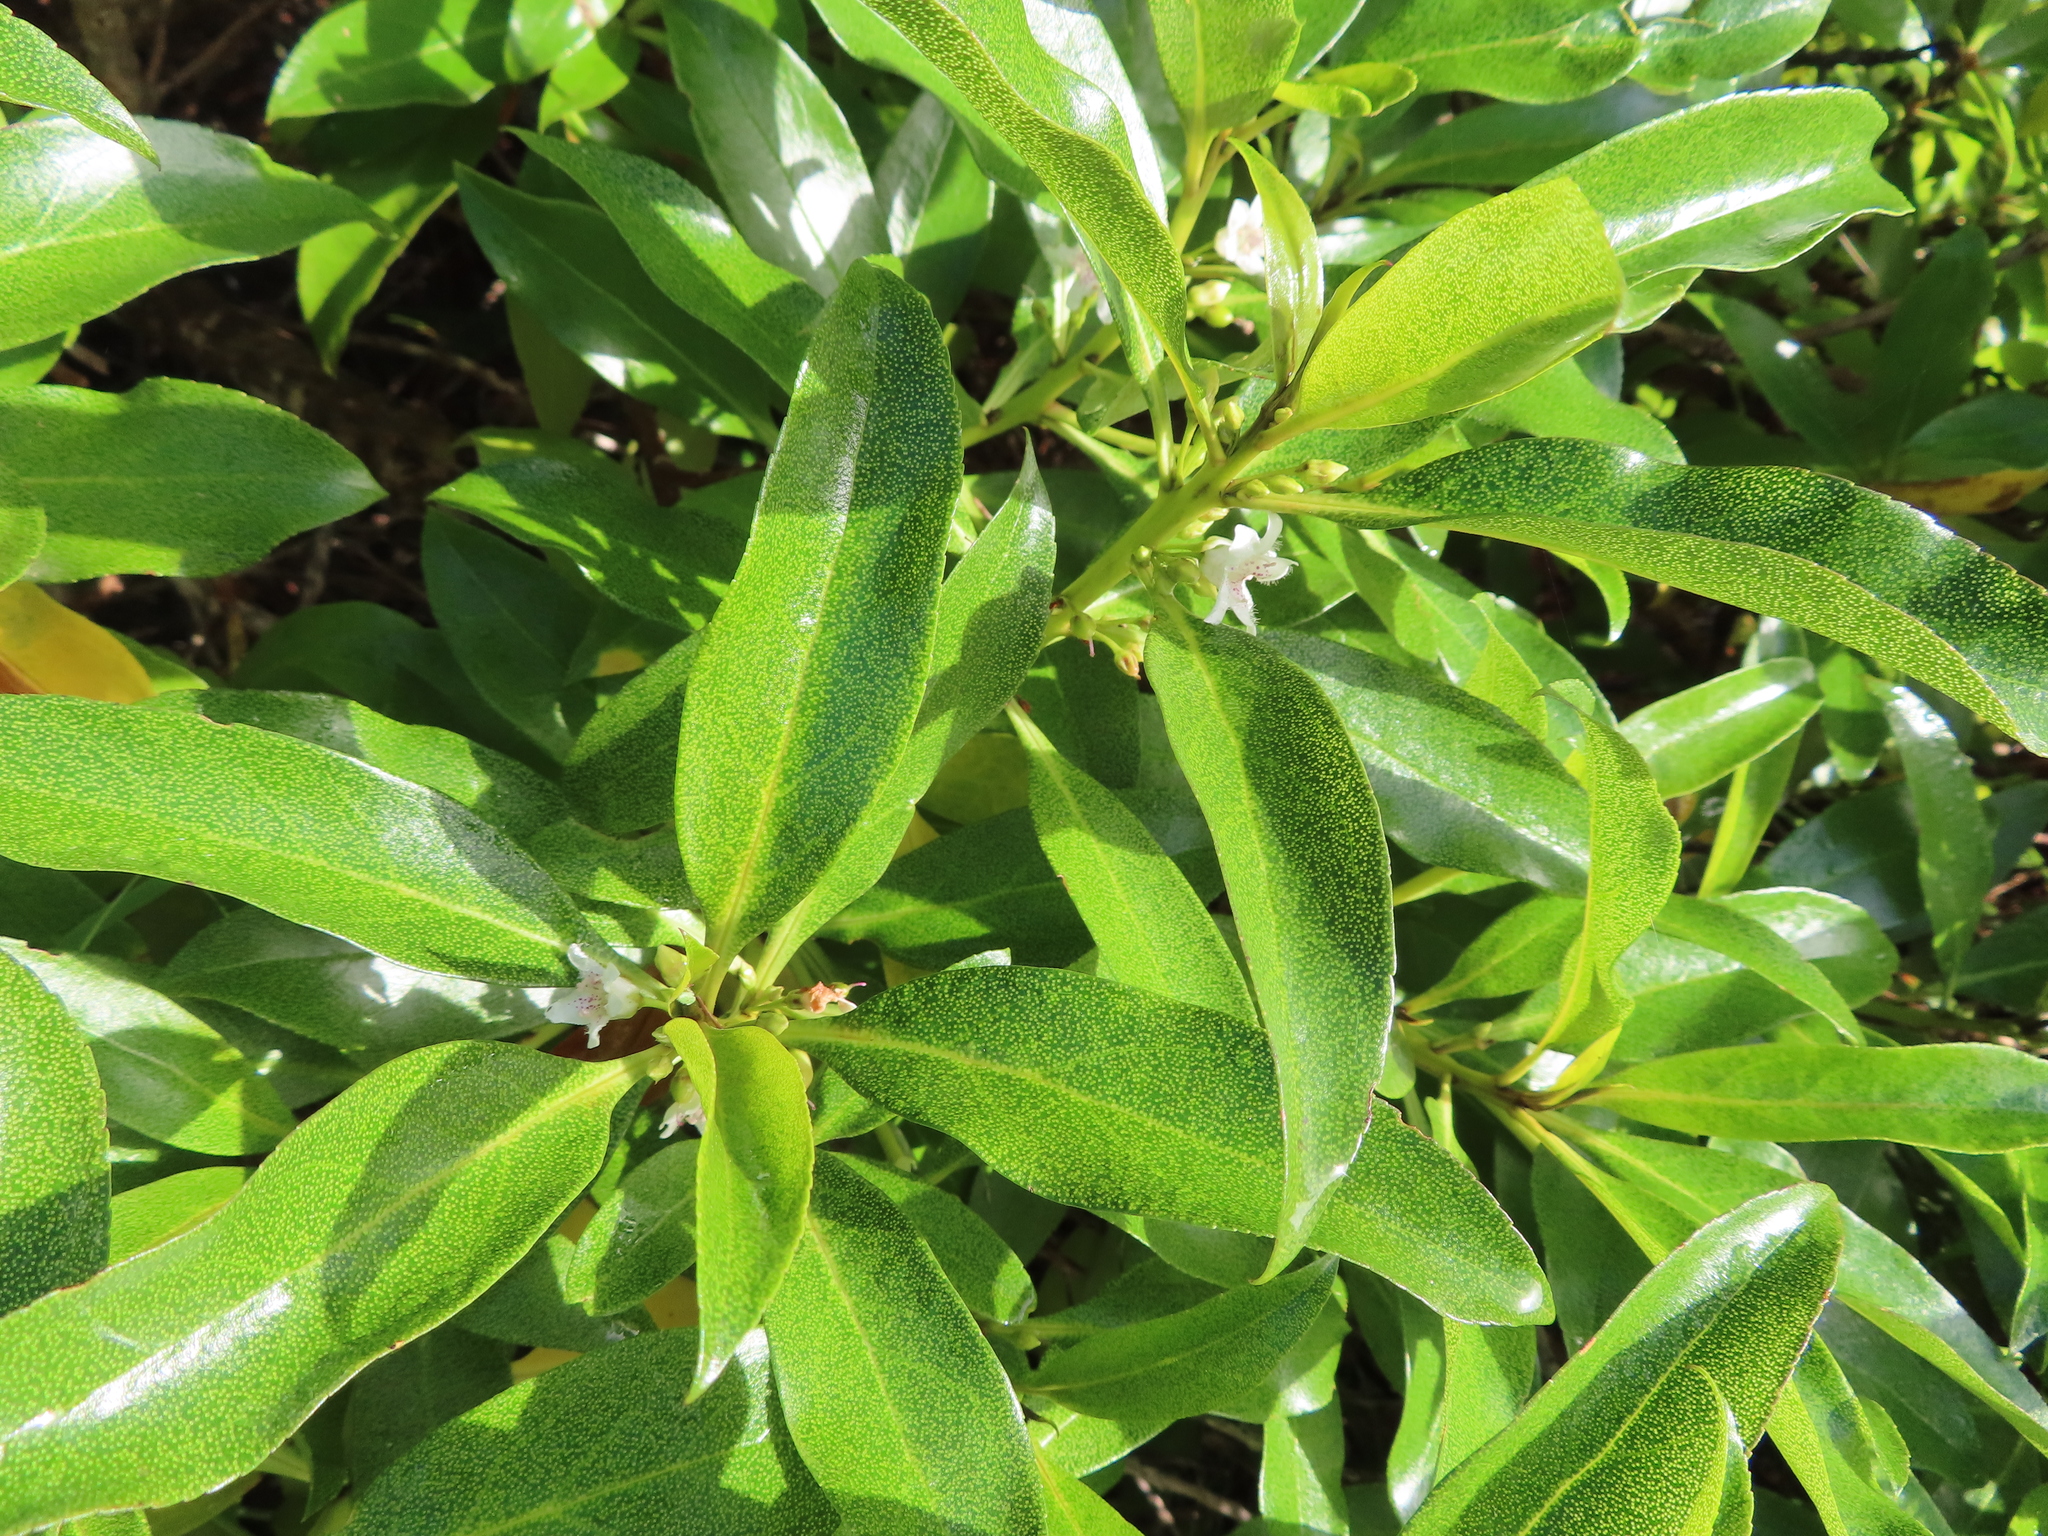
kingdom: Plantae
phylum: Tracheophyta
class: Magnoliopsida
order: Lamiales
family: Scrophulariaceae
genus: Myoporum
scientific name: Myoporum laetum
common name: Ngaio tree
